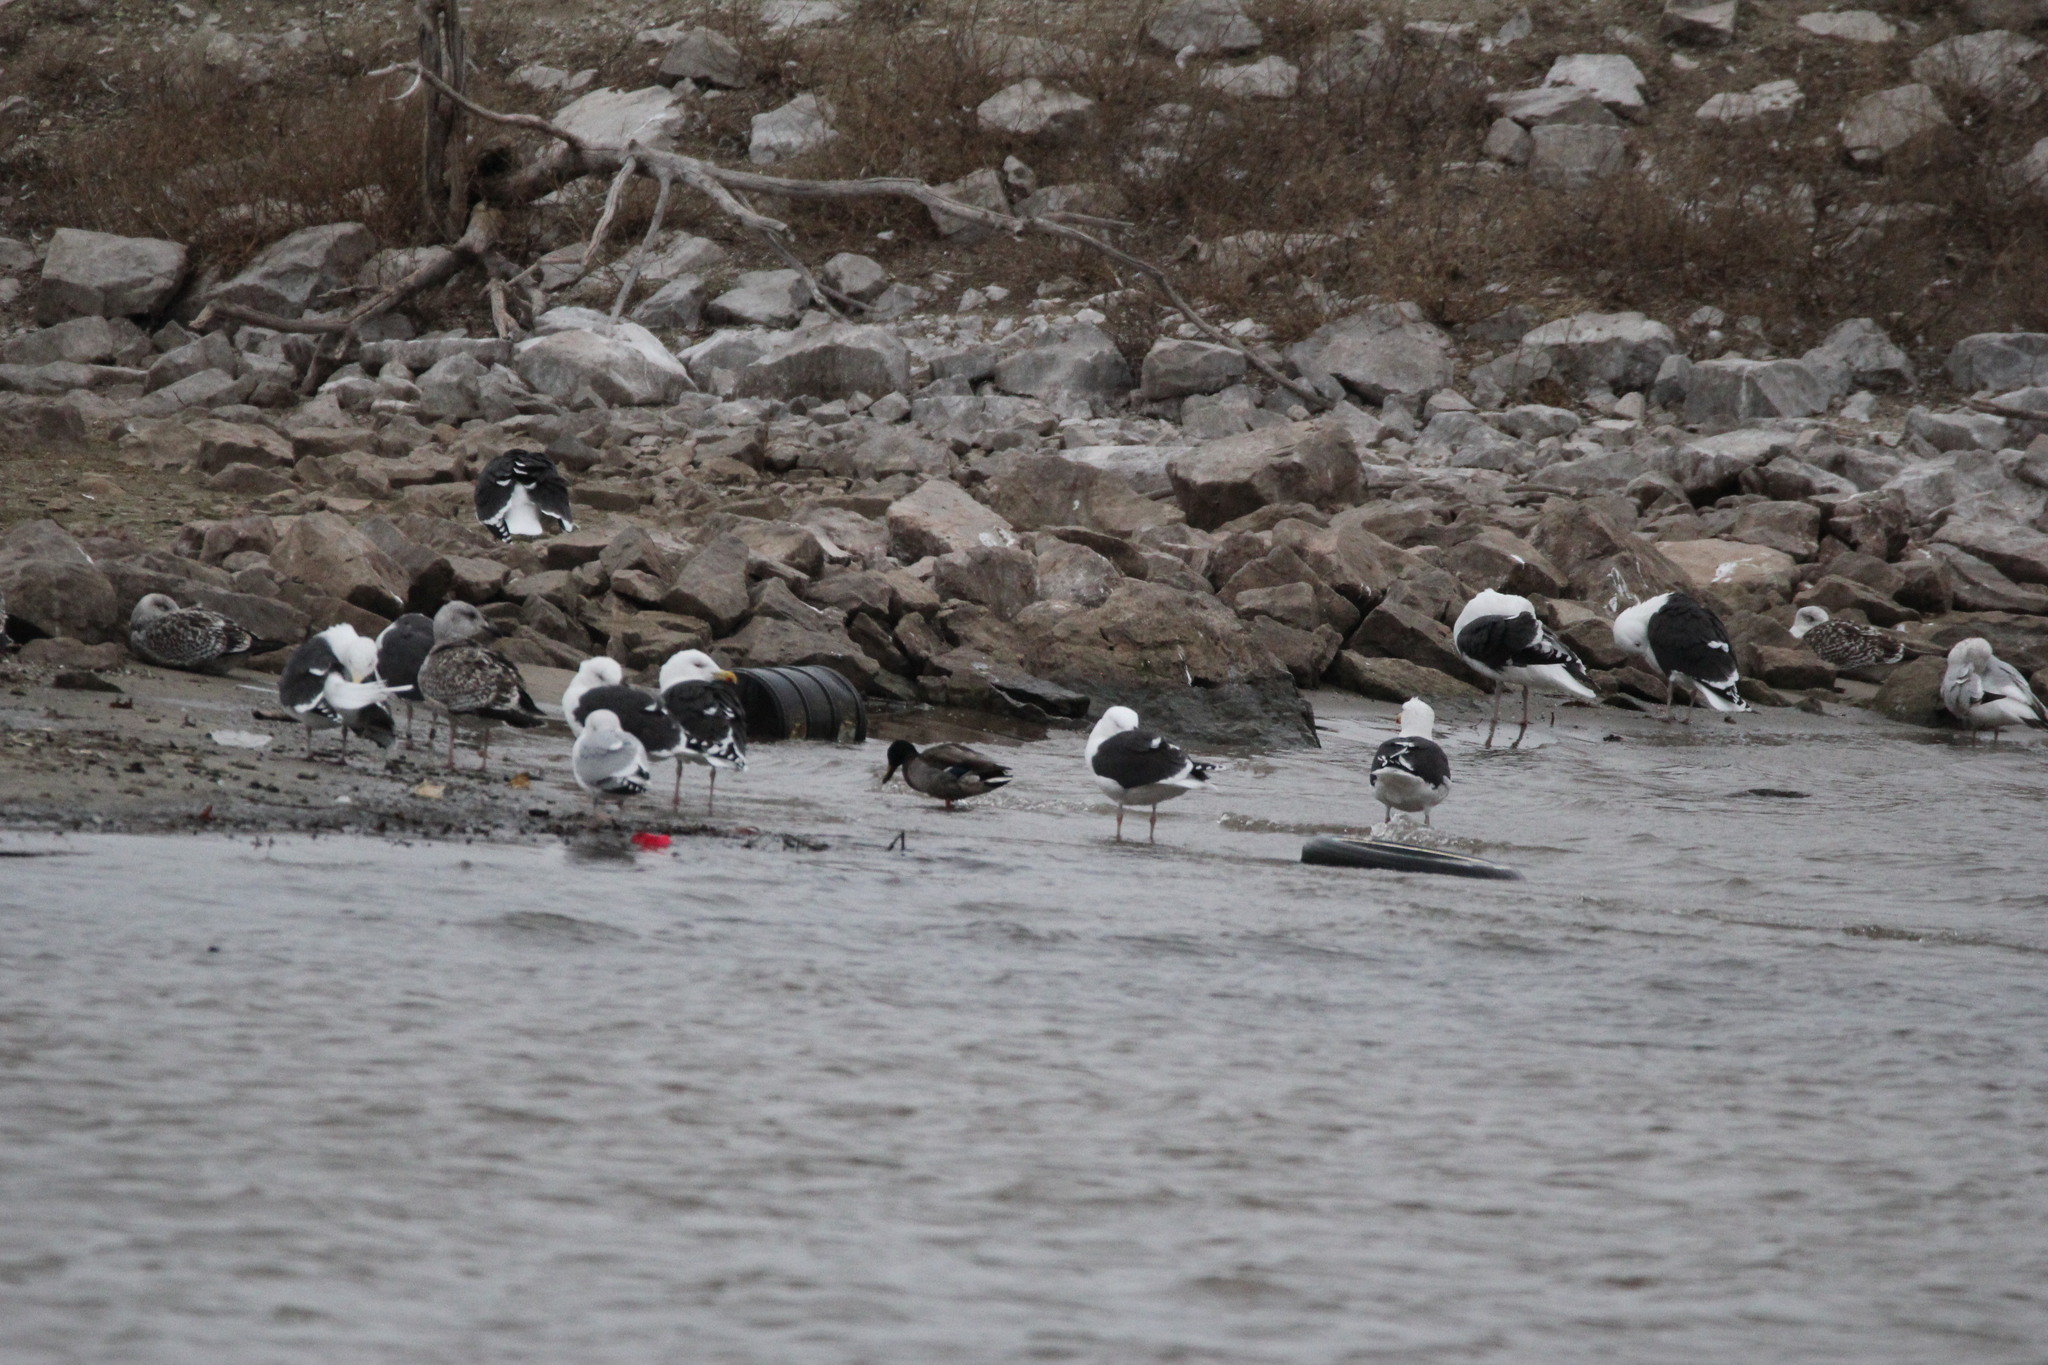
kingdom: Animalia
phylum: Chordata
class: Aves
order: Charadriiformes
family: Laridae
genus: Larus
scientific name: Larus marinus
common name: Great black-backed gull
